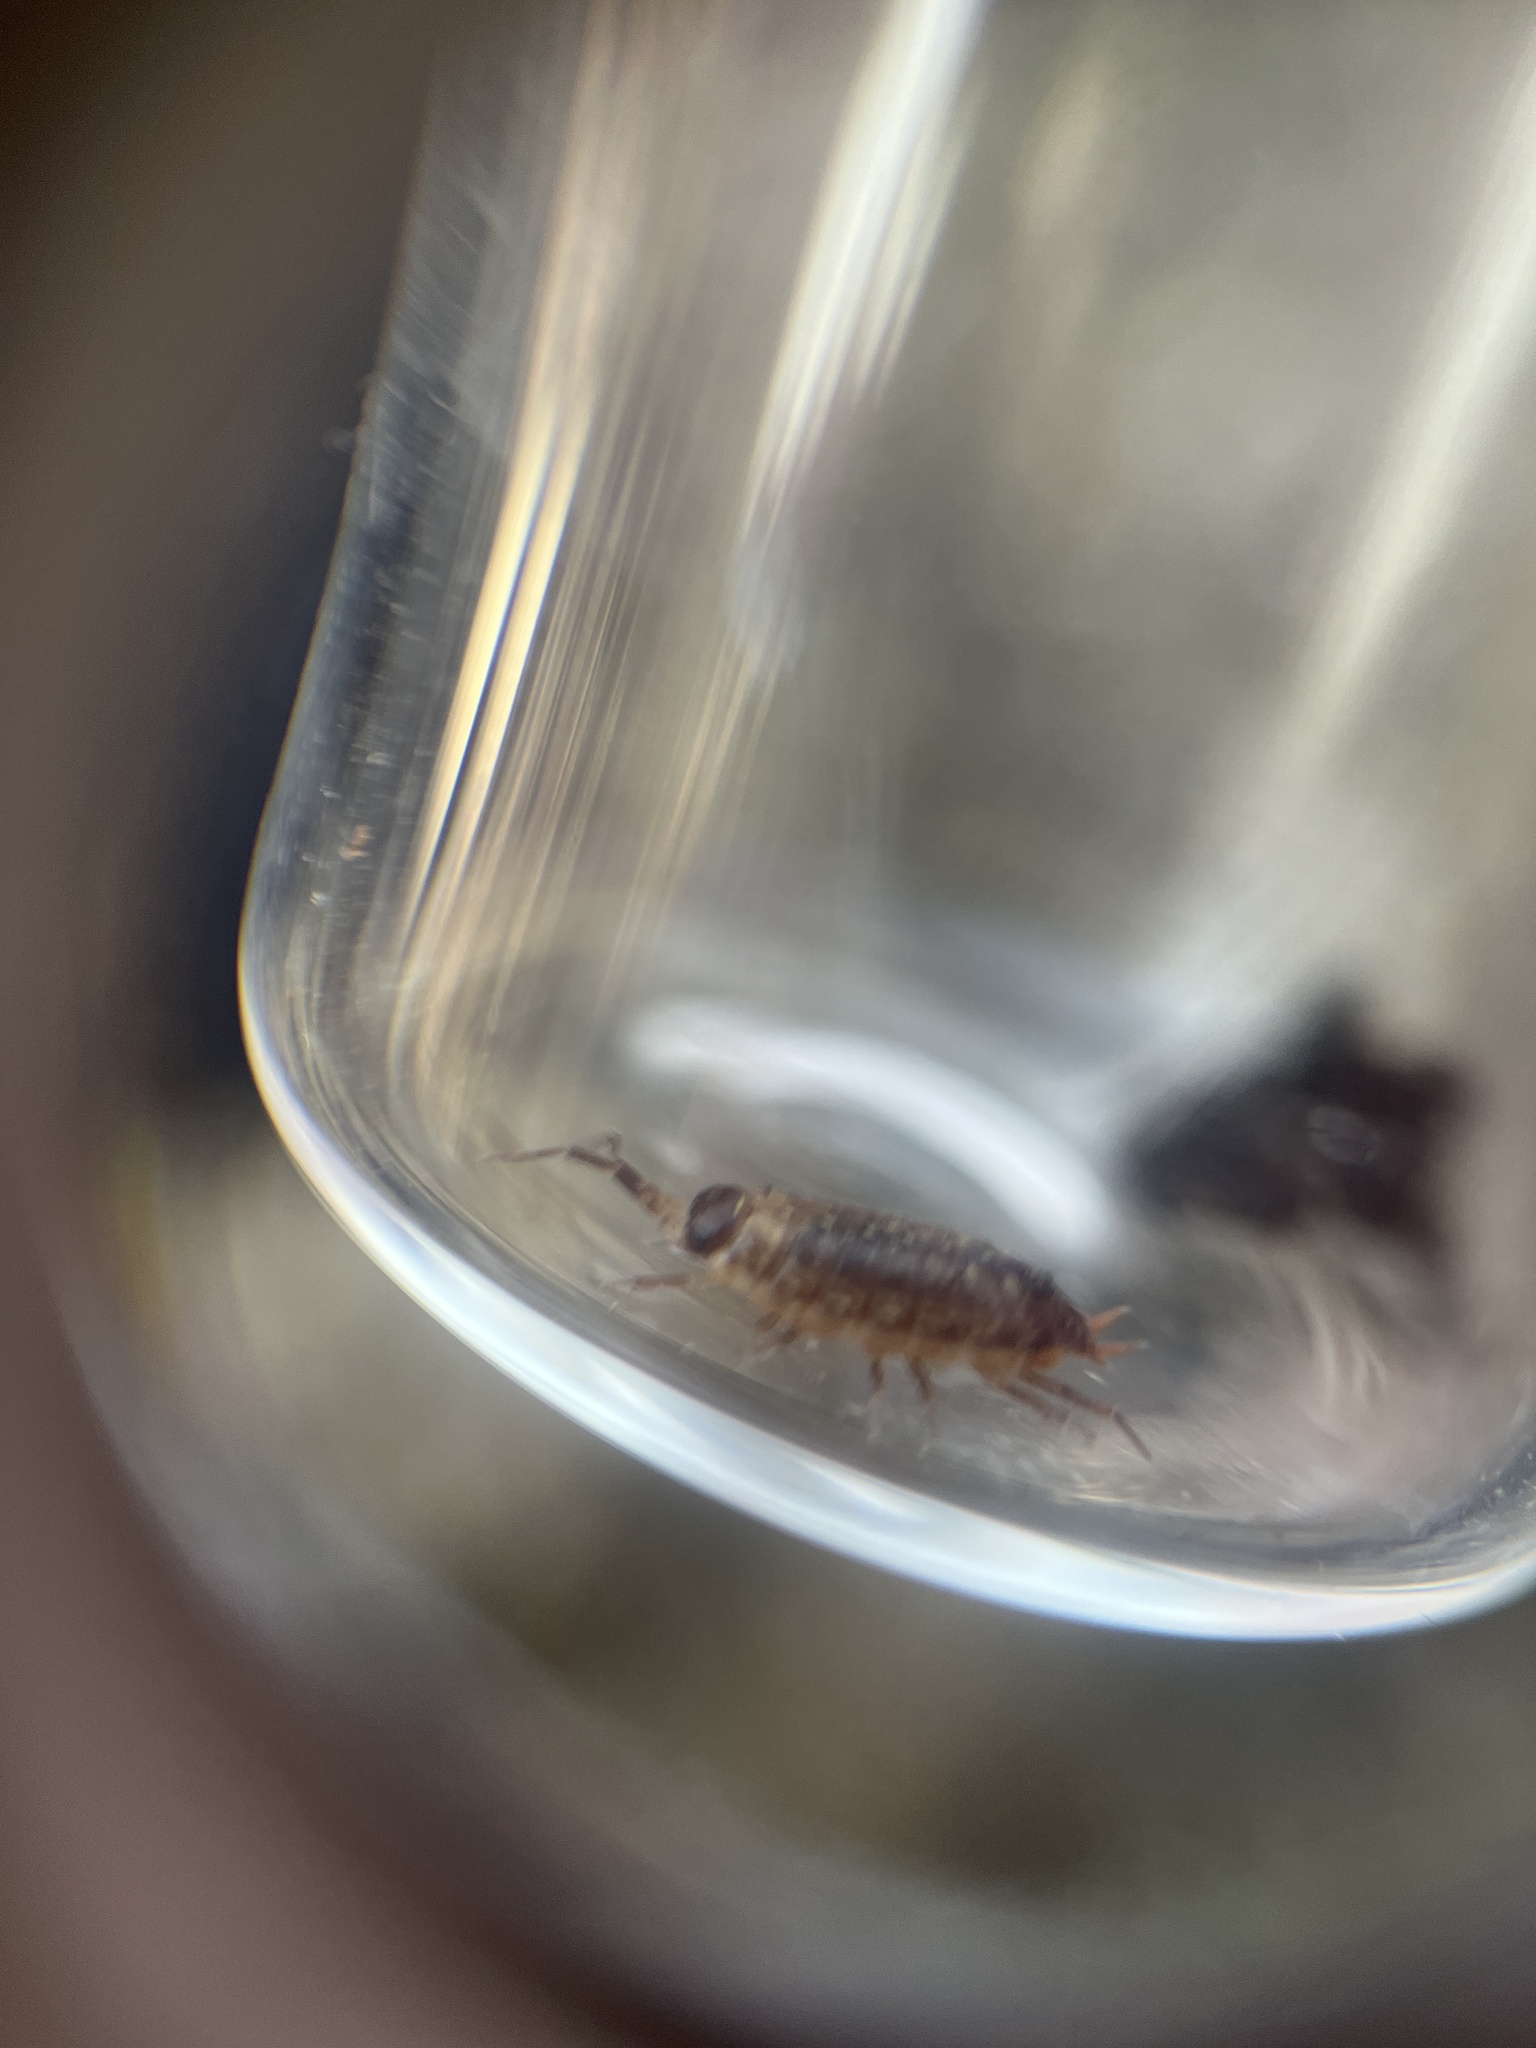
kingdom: Animalia
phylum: Arthropoda
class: Malacostraca
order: Isopoda
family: Philosciidae
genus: Philoscia
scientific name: Philoscia muscorum
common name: Common striped woodlouse
